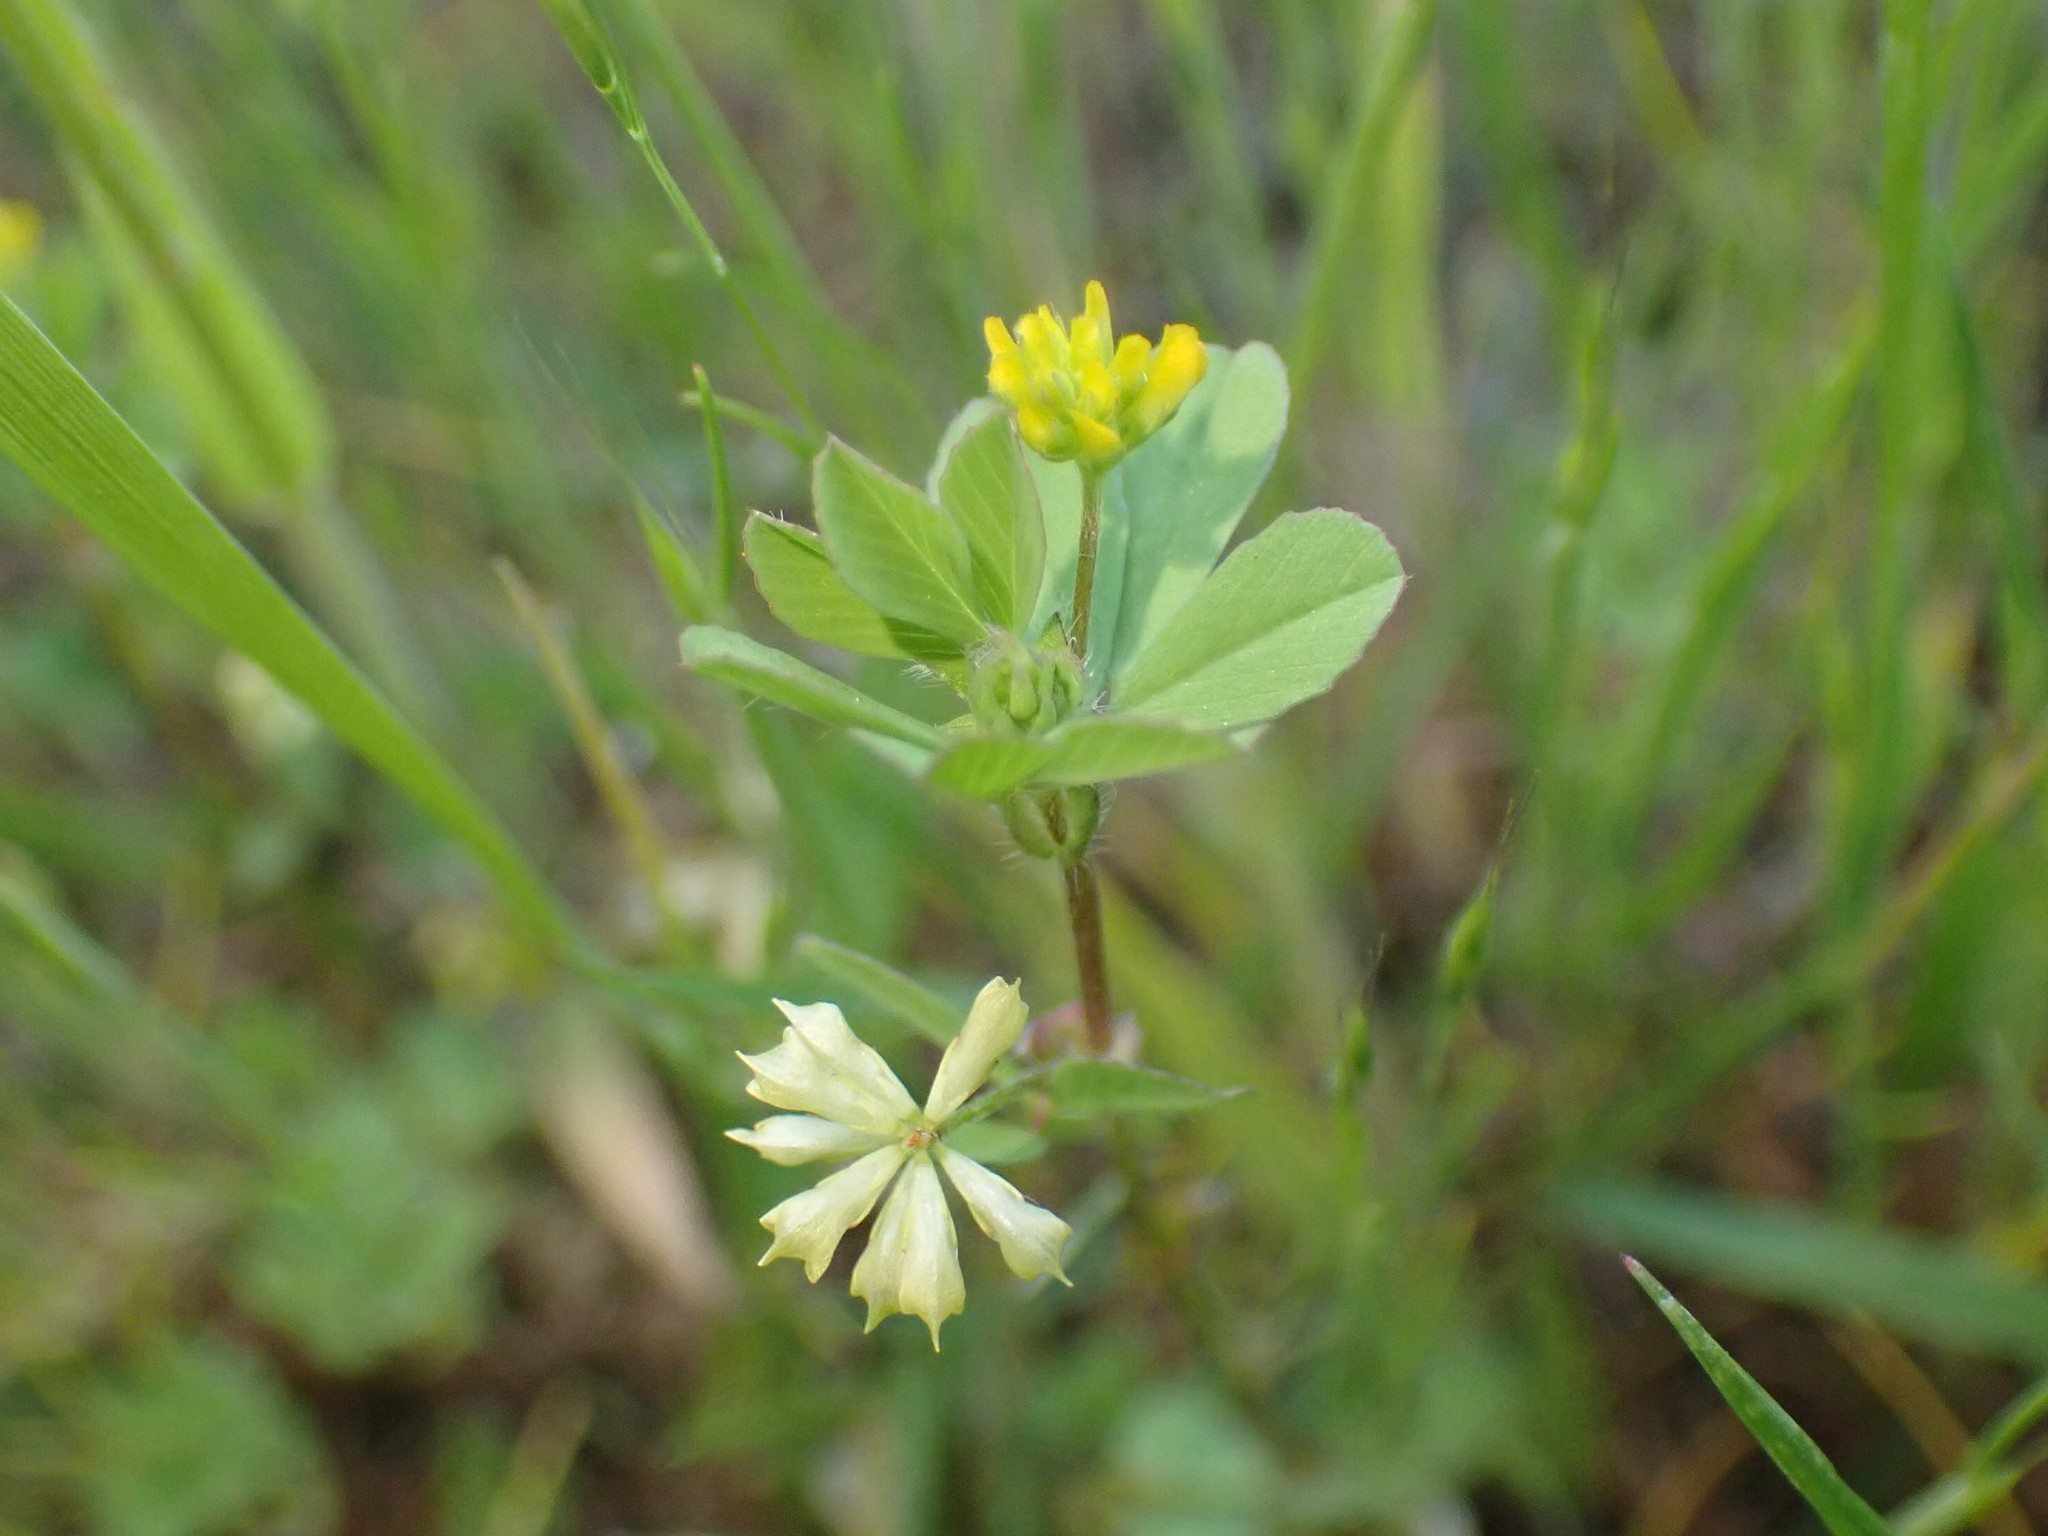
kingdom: Plantae
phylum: Tracheophyta
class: Magnoliopsida
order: Fabales
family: Fabaceae
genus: Trifolium
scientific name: Trifolium dubium
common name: Suckling clover
